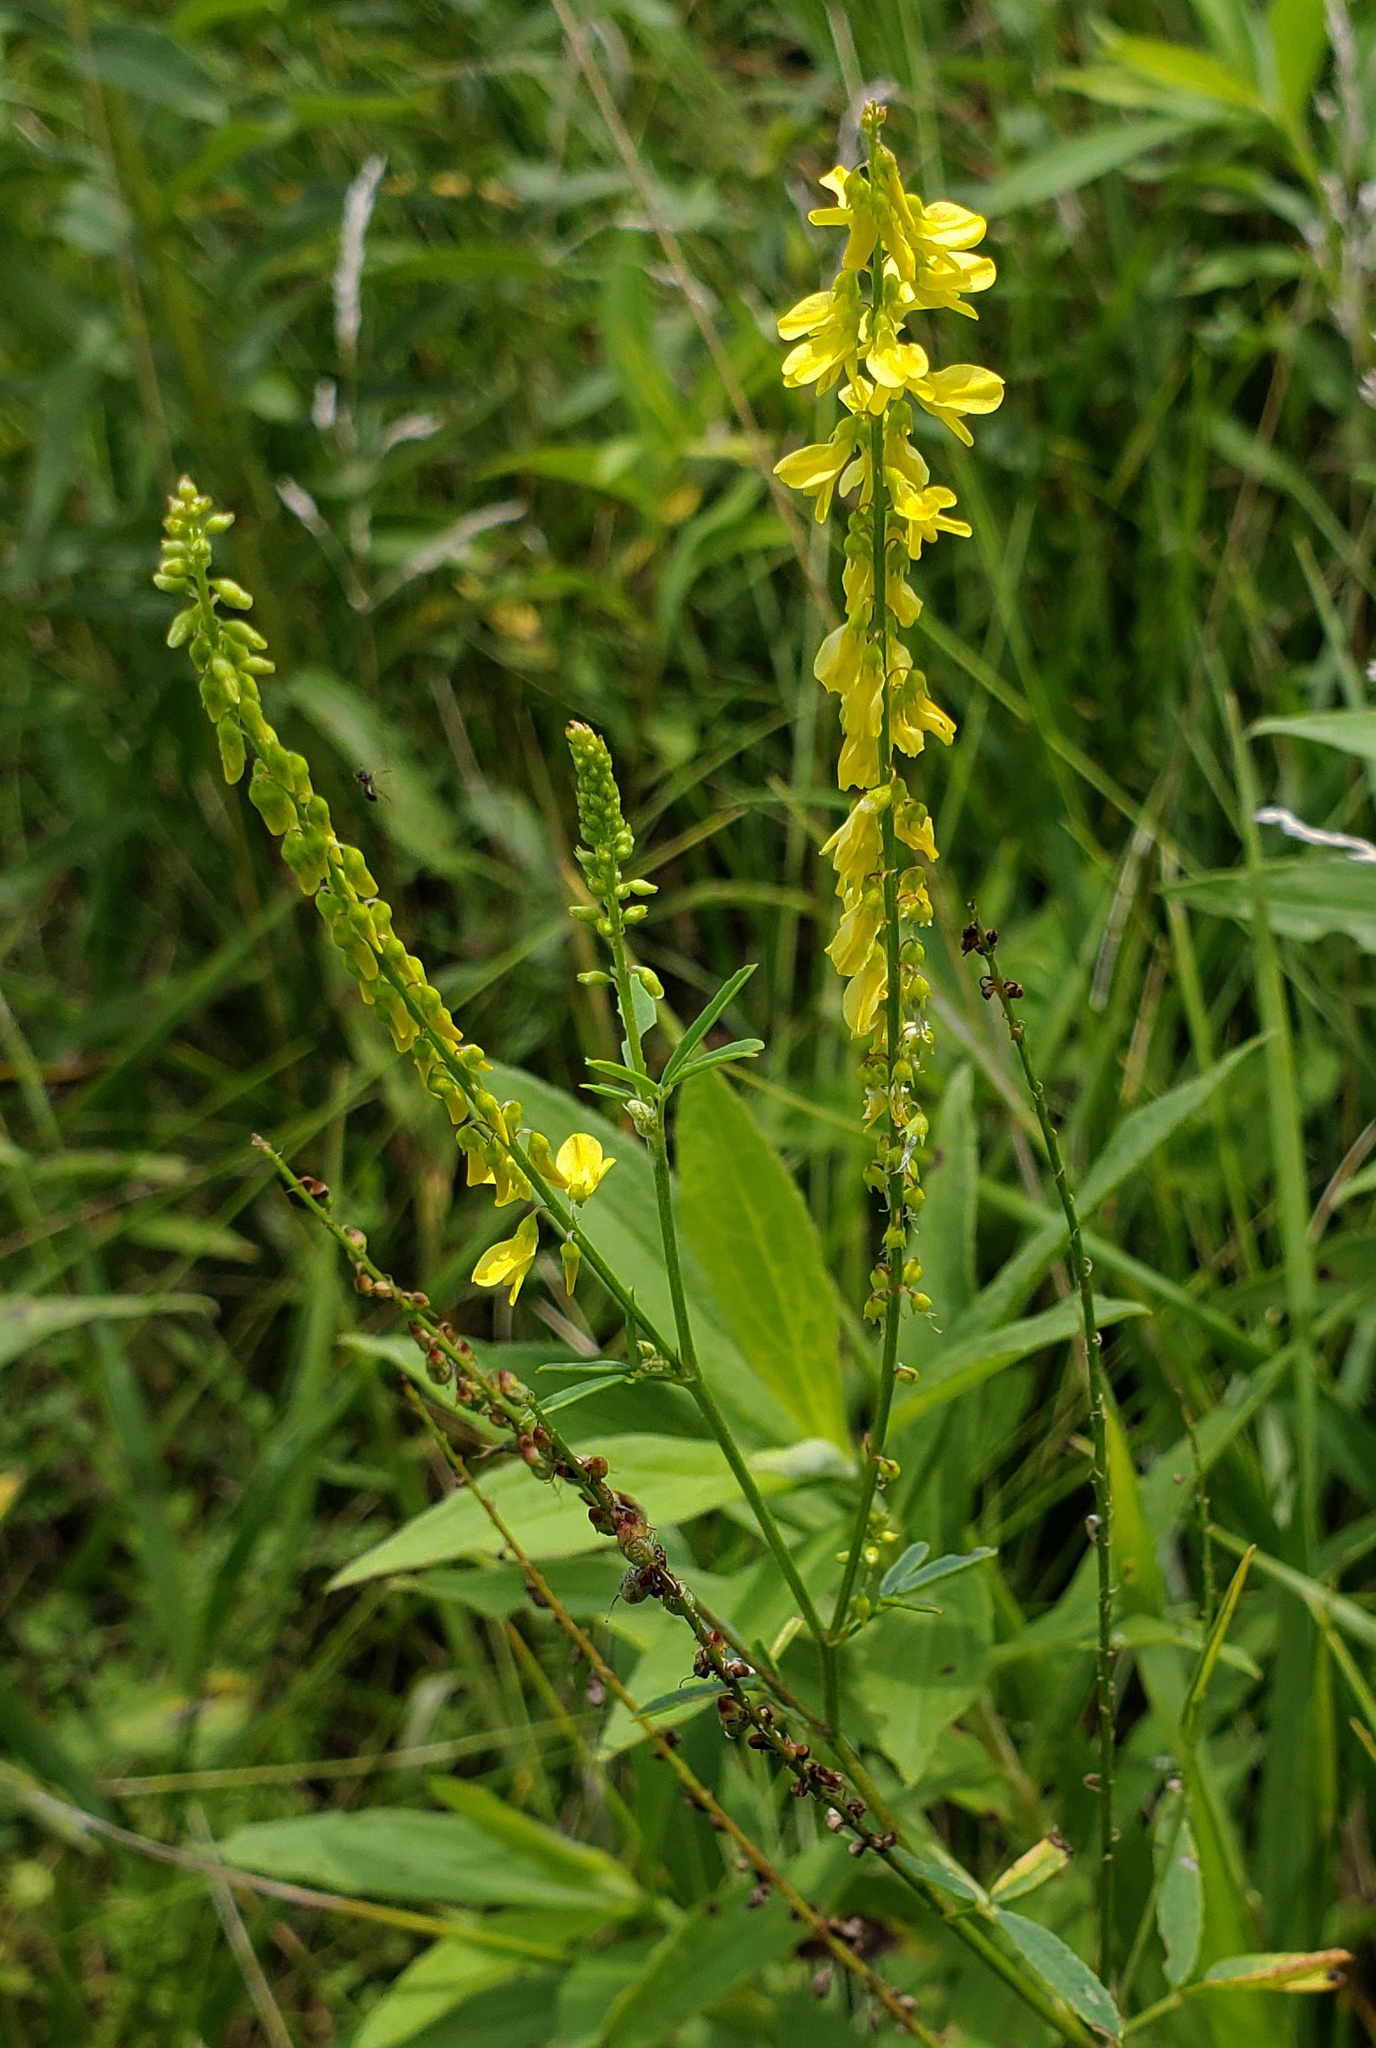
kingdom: Plantae
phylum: Tracheophyta
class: Magnoliopsida
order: Fabales
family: Fabaceae
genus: Melilotus
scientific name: Melilotus officinalis
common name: Sweetclover
